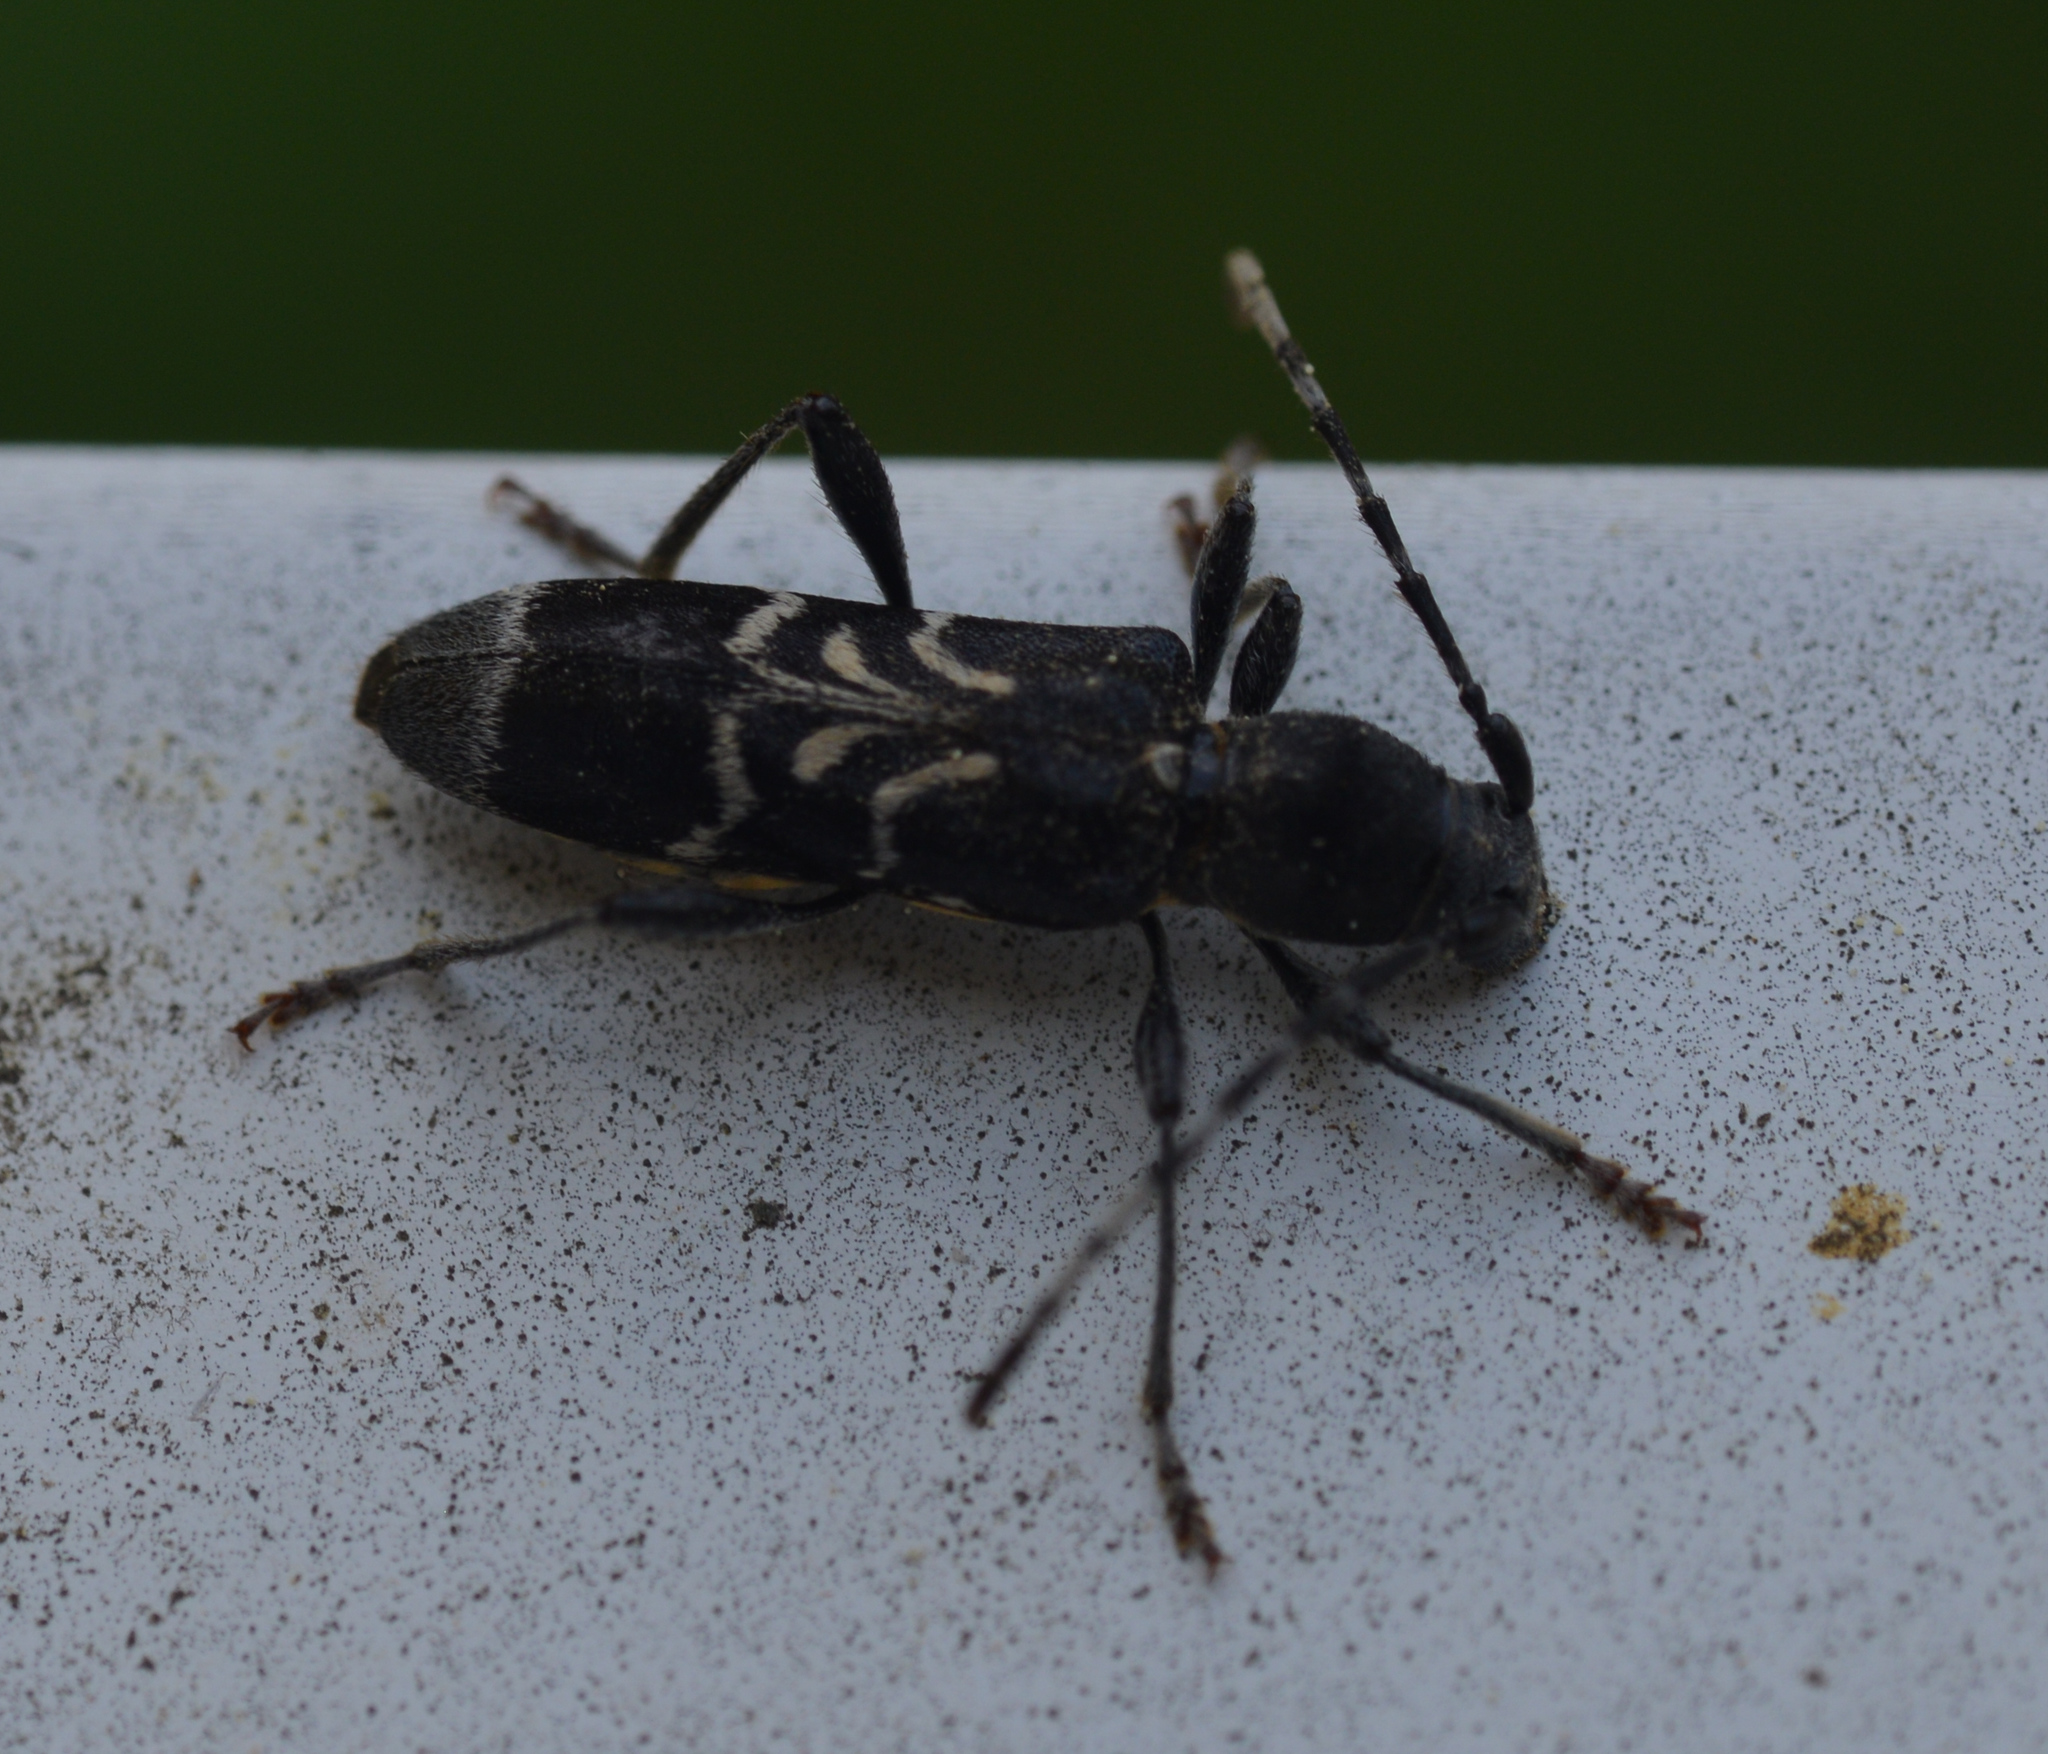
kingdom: Animalia
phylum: Arthropoda
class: Insecta
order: Coleoptera
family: Cerambycidae
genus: Anaglyptus
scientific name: Anaglyptus mysticus
